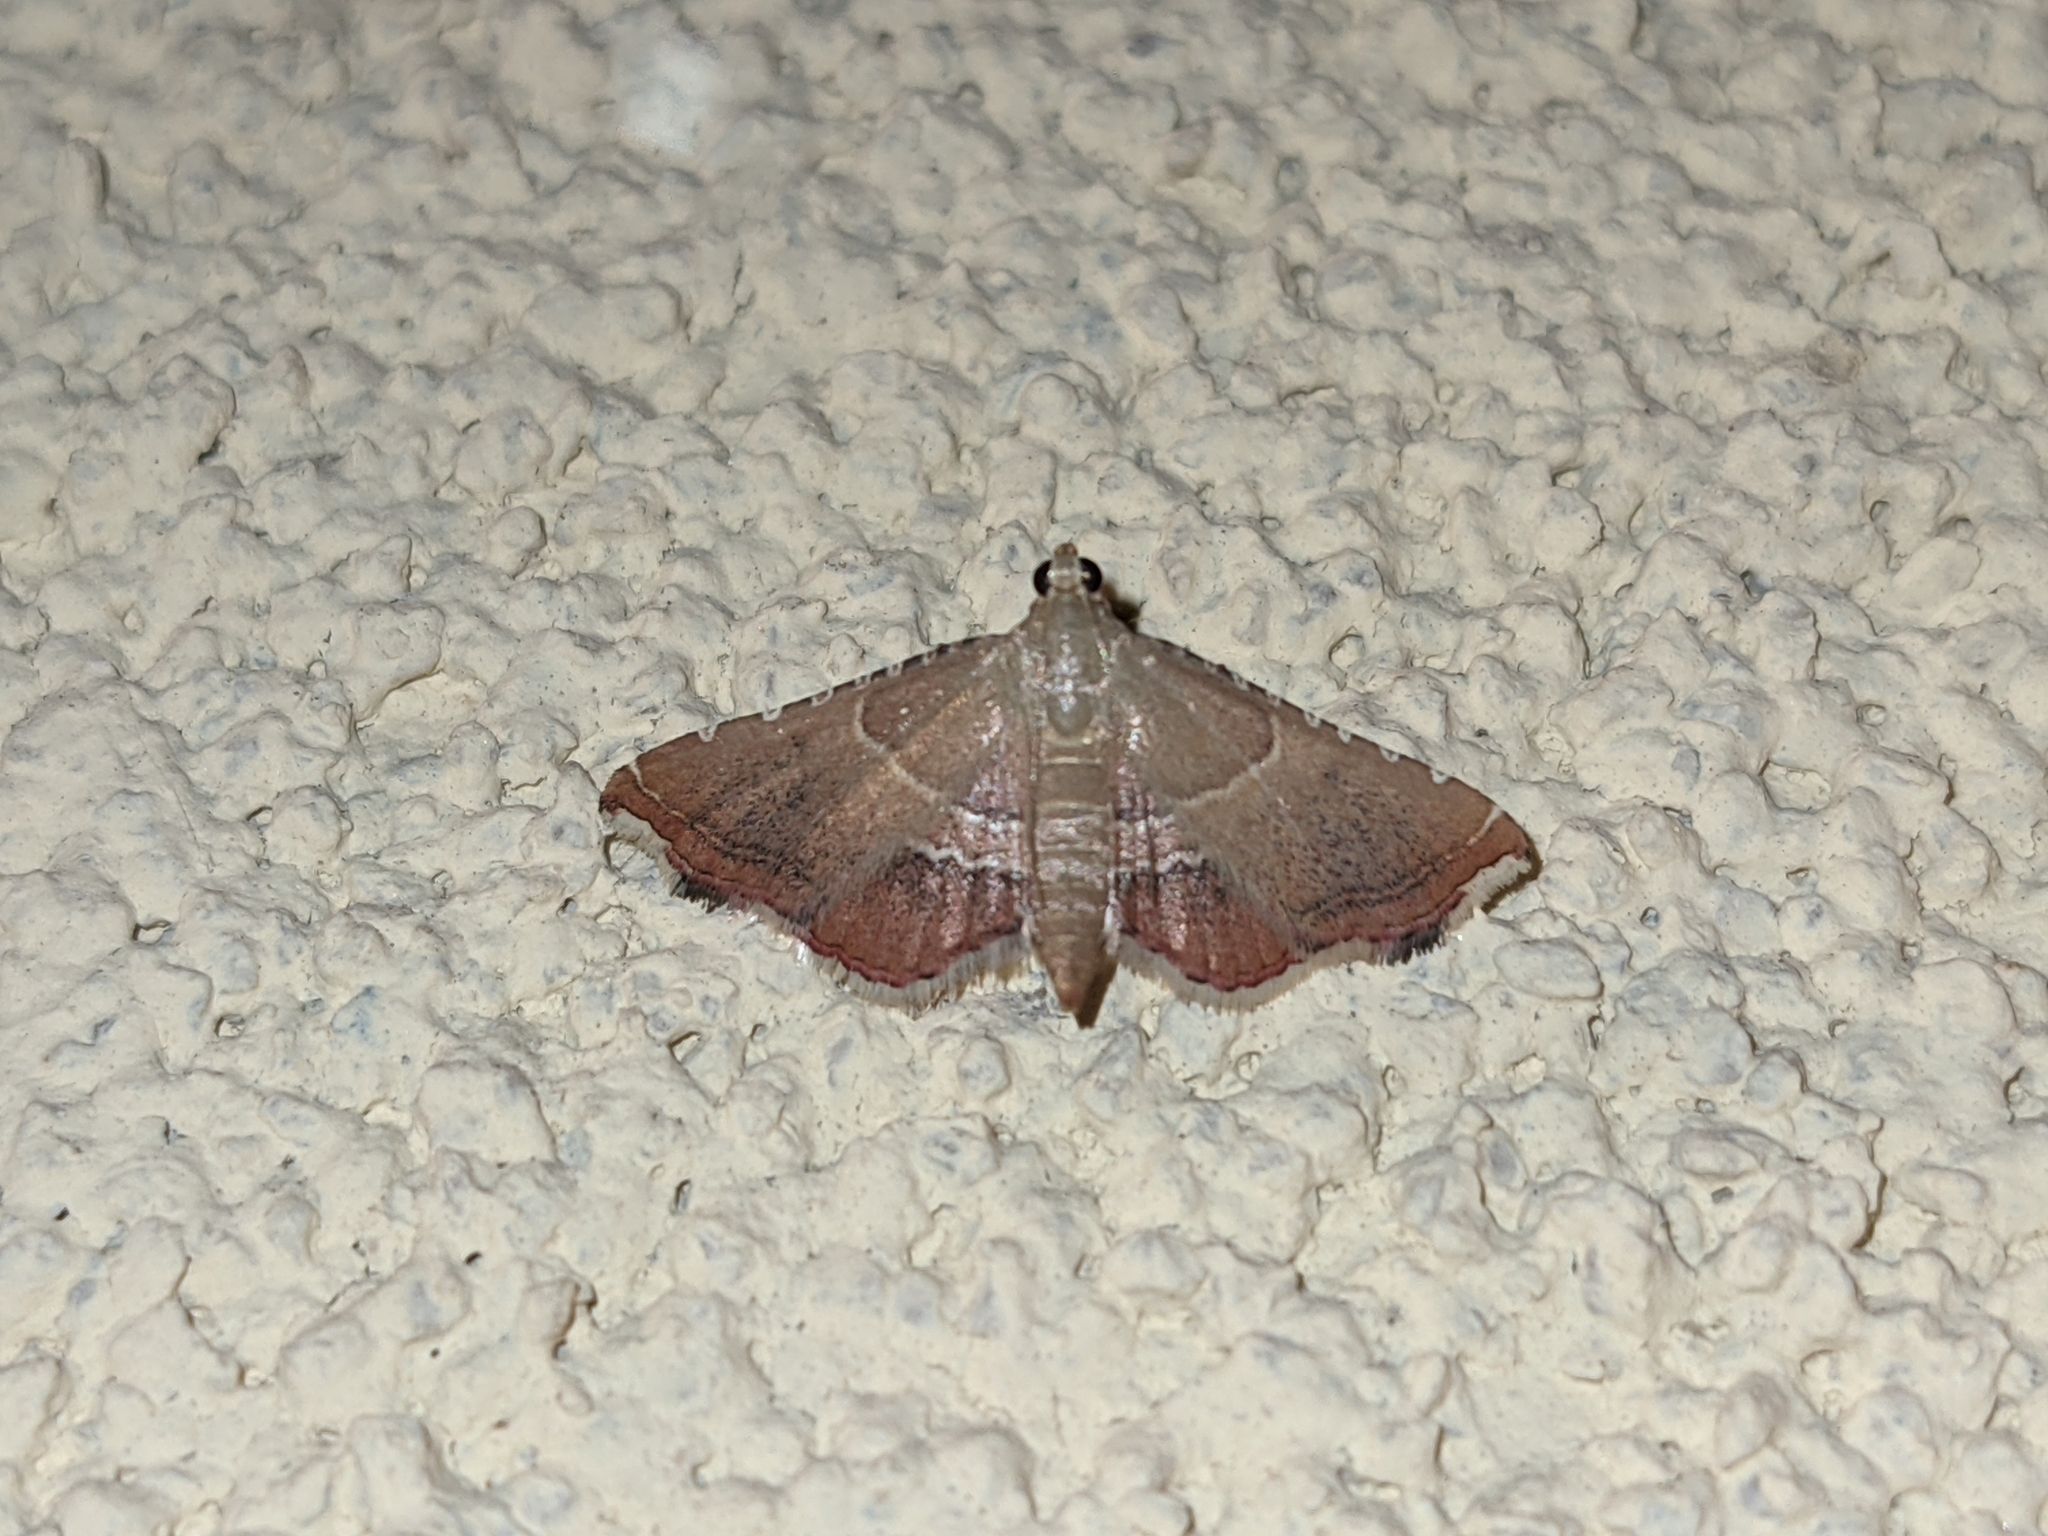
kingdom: Animalia
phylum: Arthropoda
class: Insecta
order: Lepidoptera
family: Pyralidae
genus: Endotricha
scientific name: Endotricha flammealis
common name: Rosy tabby
